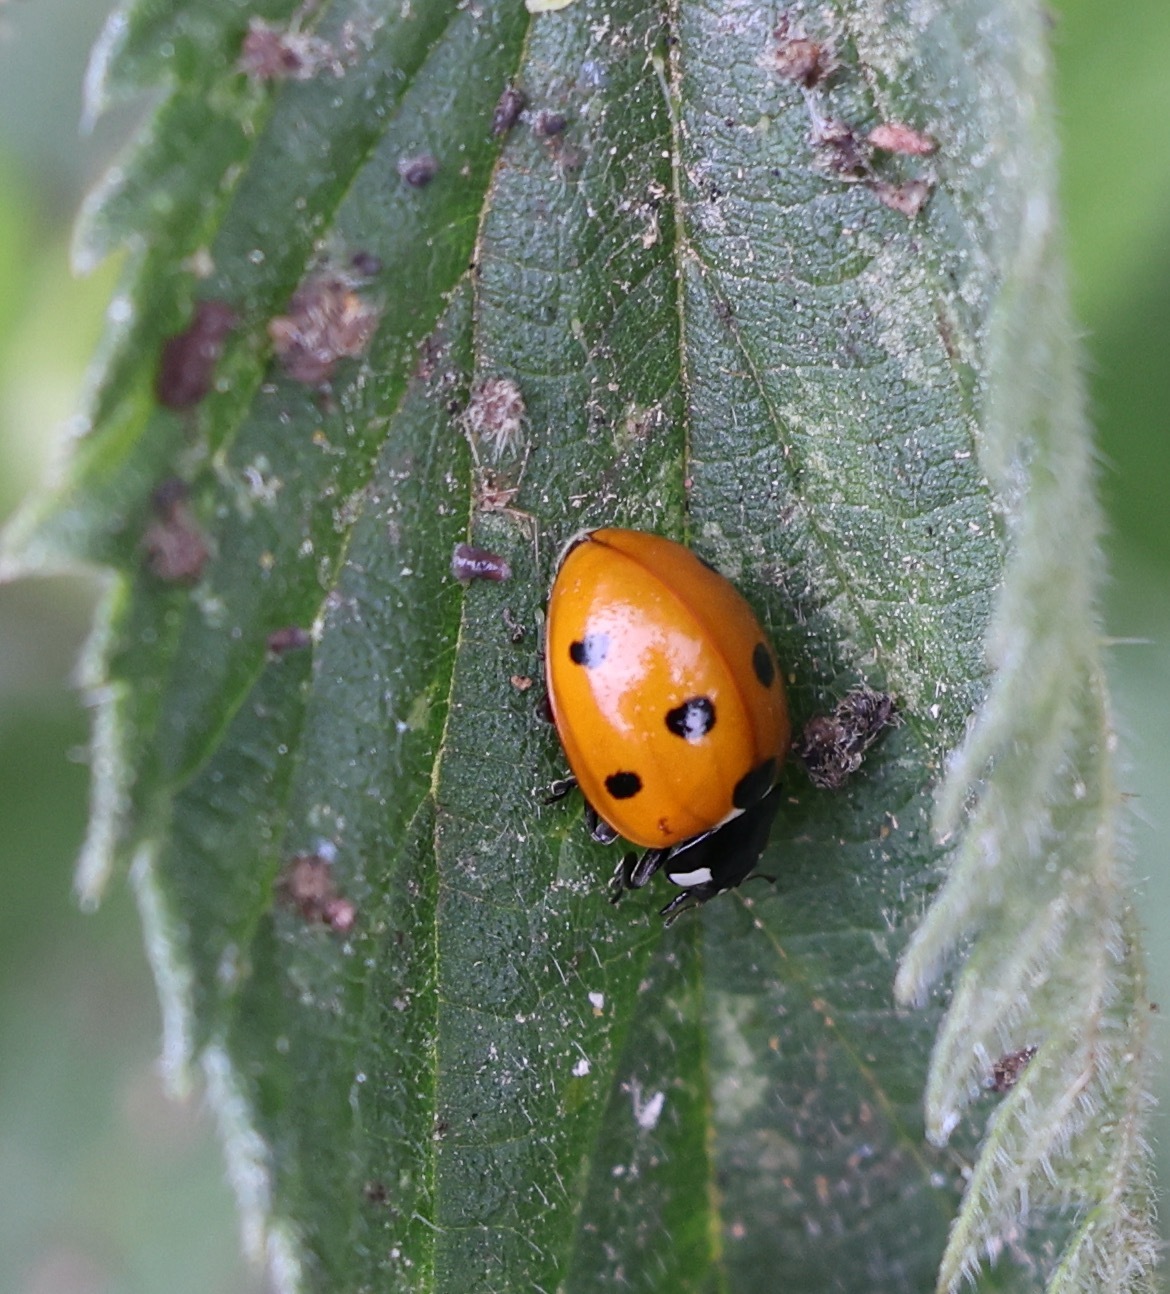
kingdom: Animalia
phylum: Arthropoda
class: Insecta
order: Coleoptera
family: Coccinellidae
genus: Coccinella
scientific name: Coccinella septempunctata
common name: Sevenspotted lady beetle
